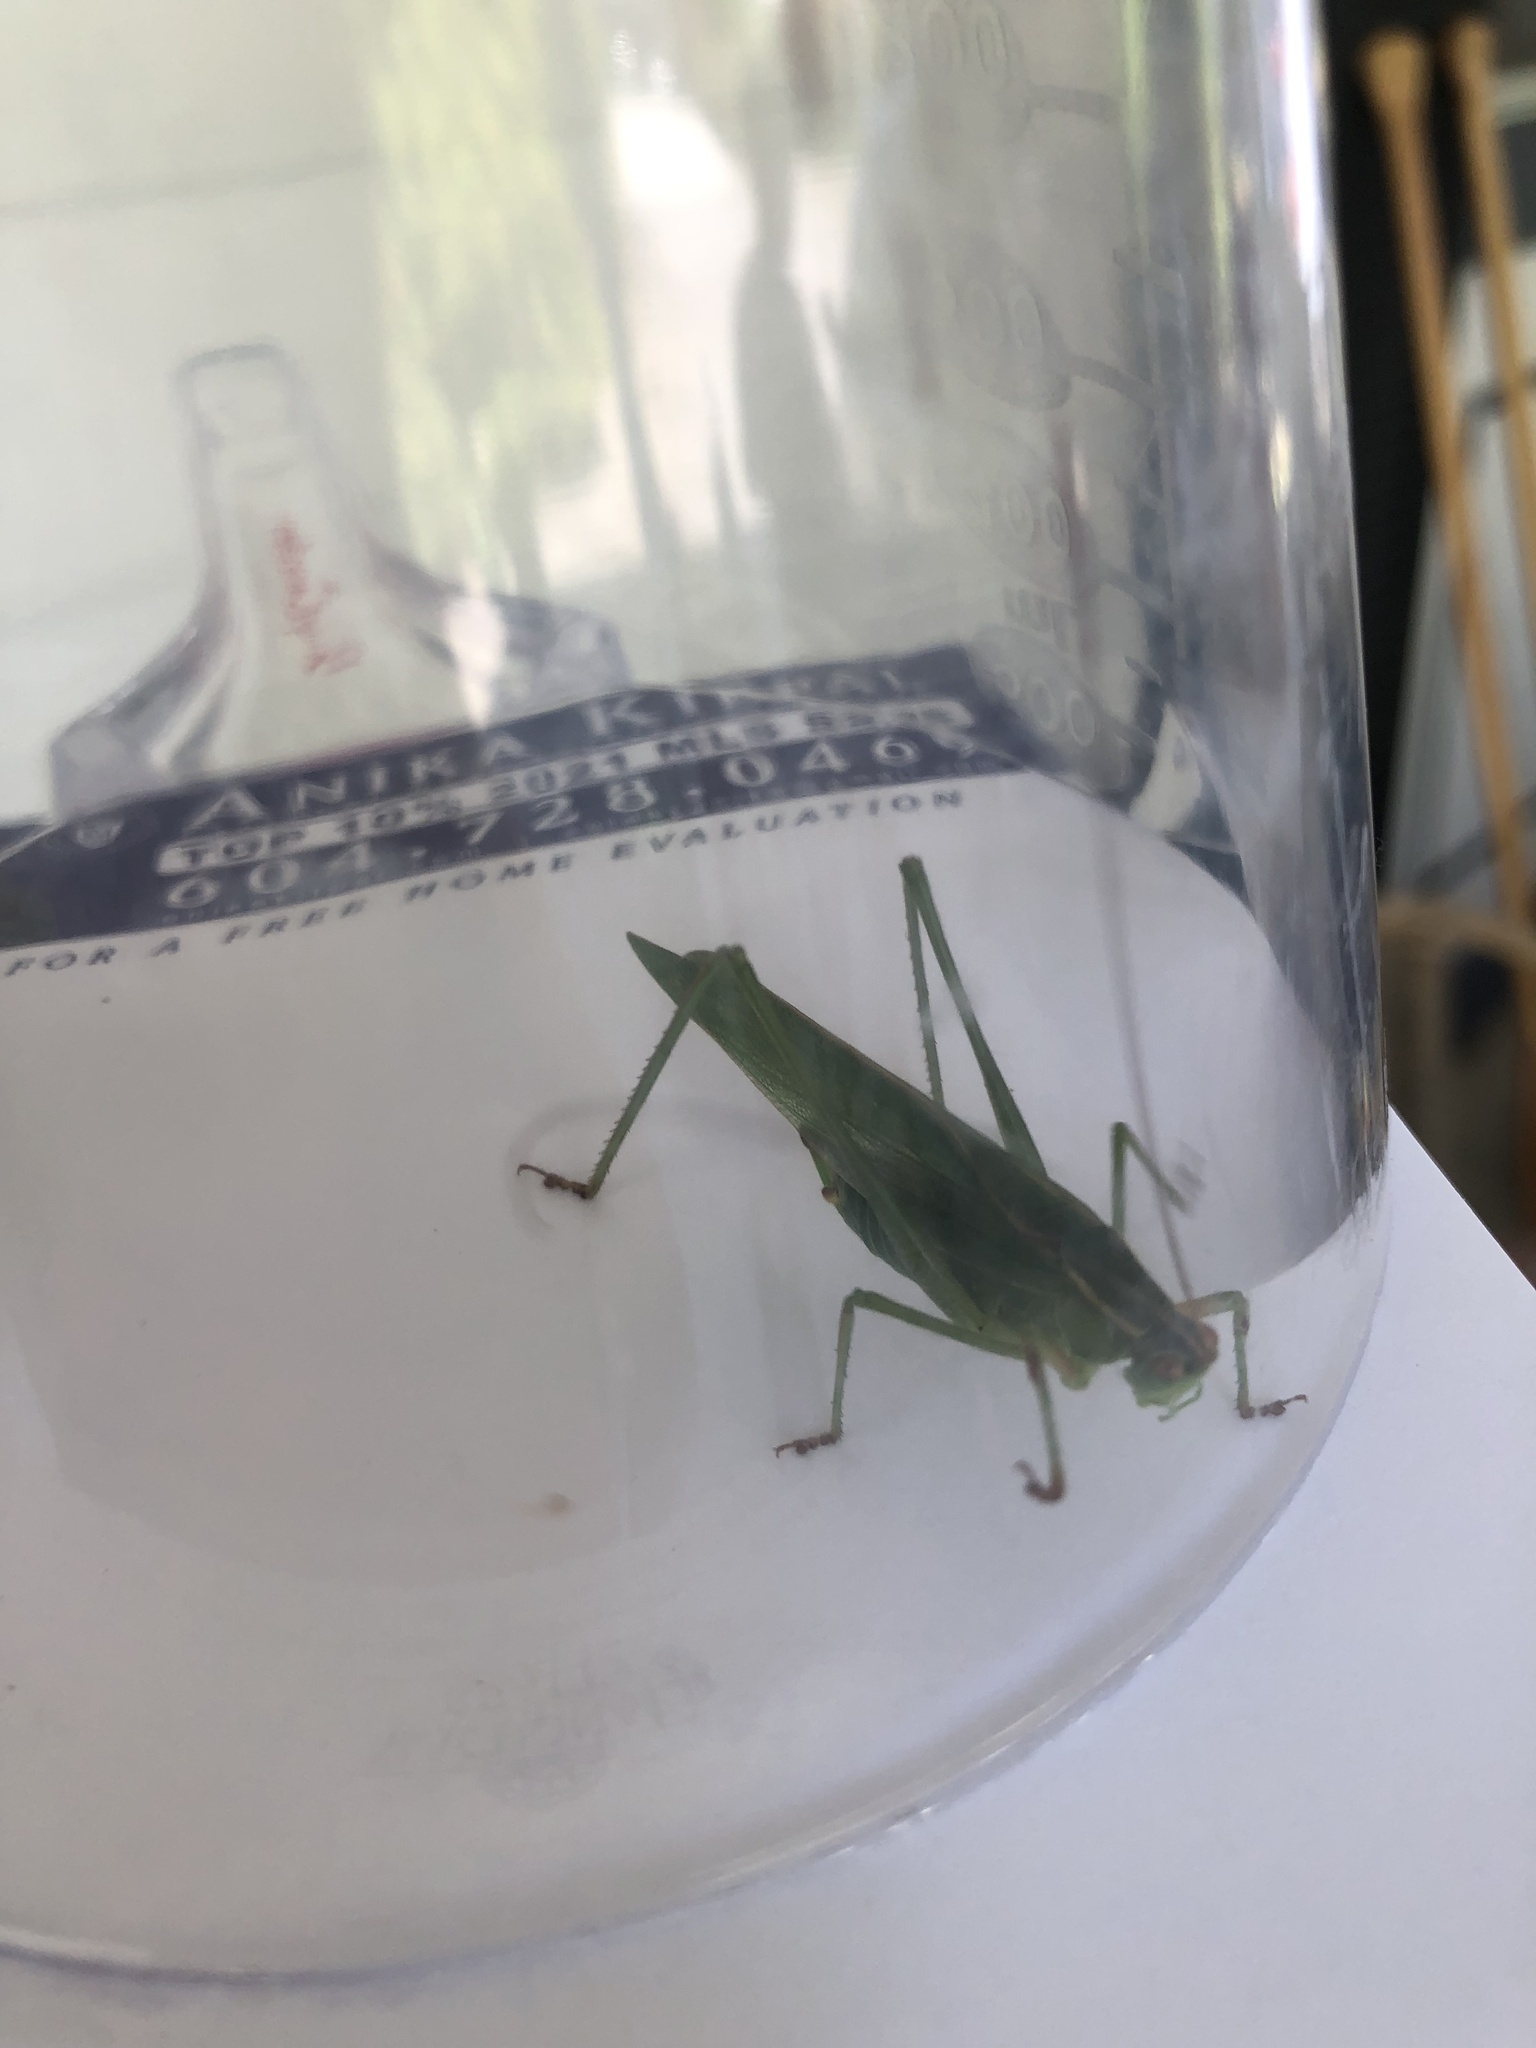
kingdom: Animalia
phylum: Arthropoda
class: Insecta
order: Orthoptera
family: Tettigoniidae
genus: Scudderia
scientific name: Scudderia furcata
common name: Fork-tailed bush katydid
